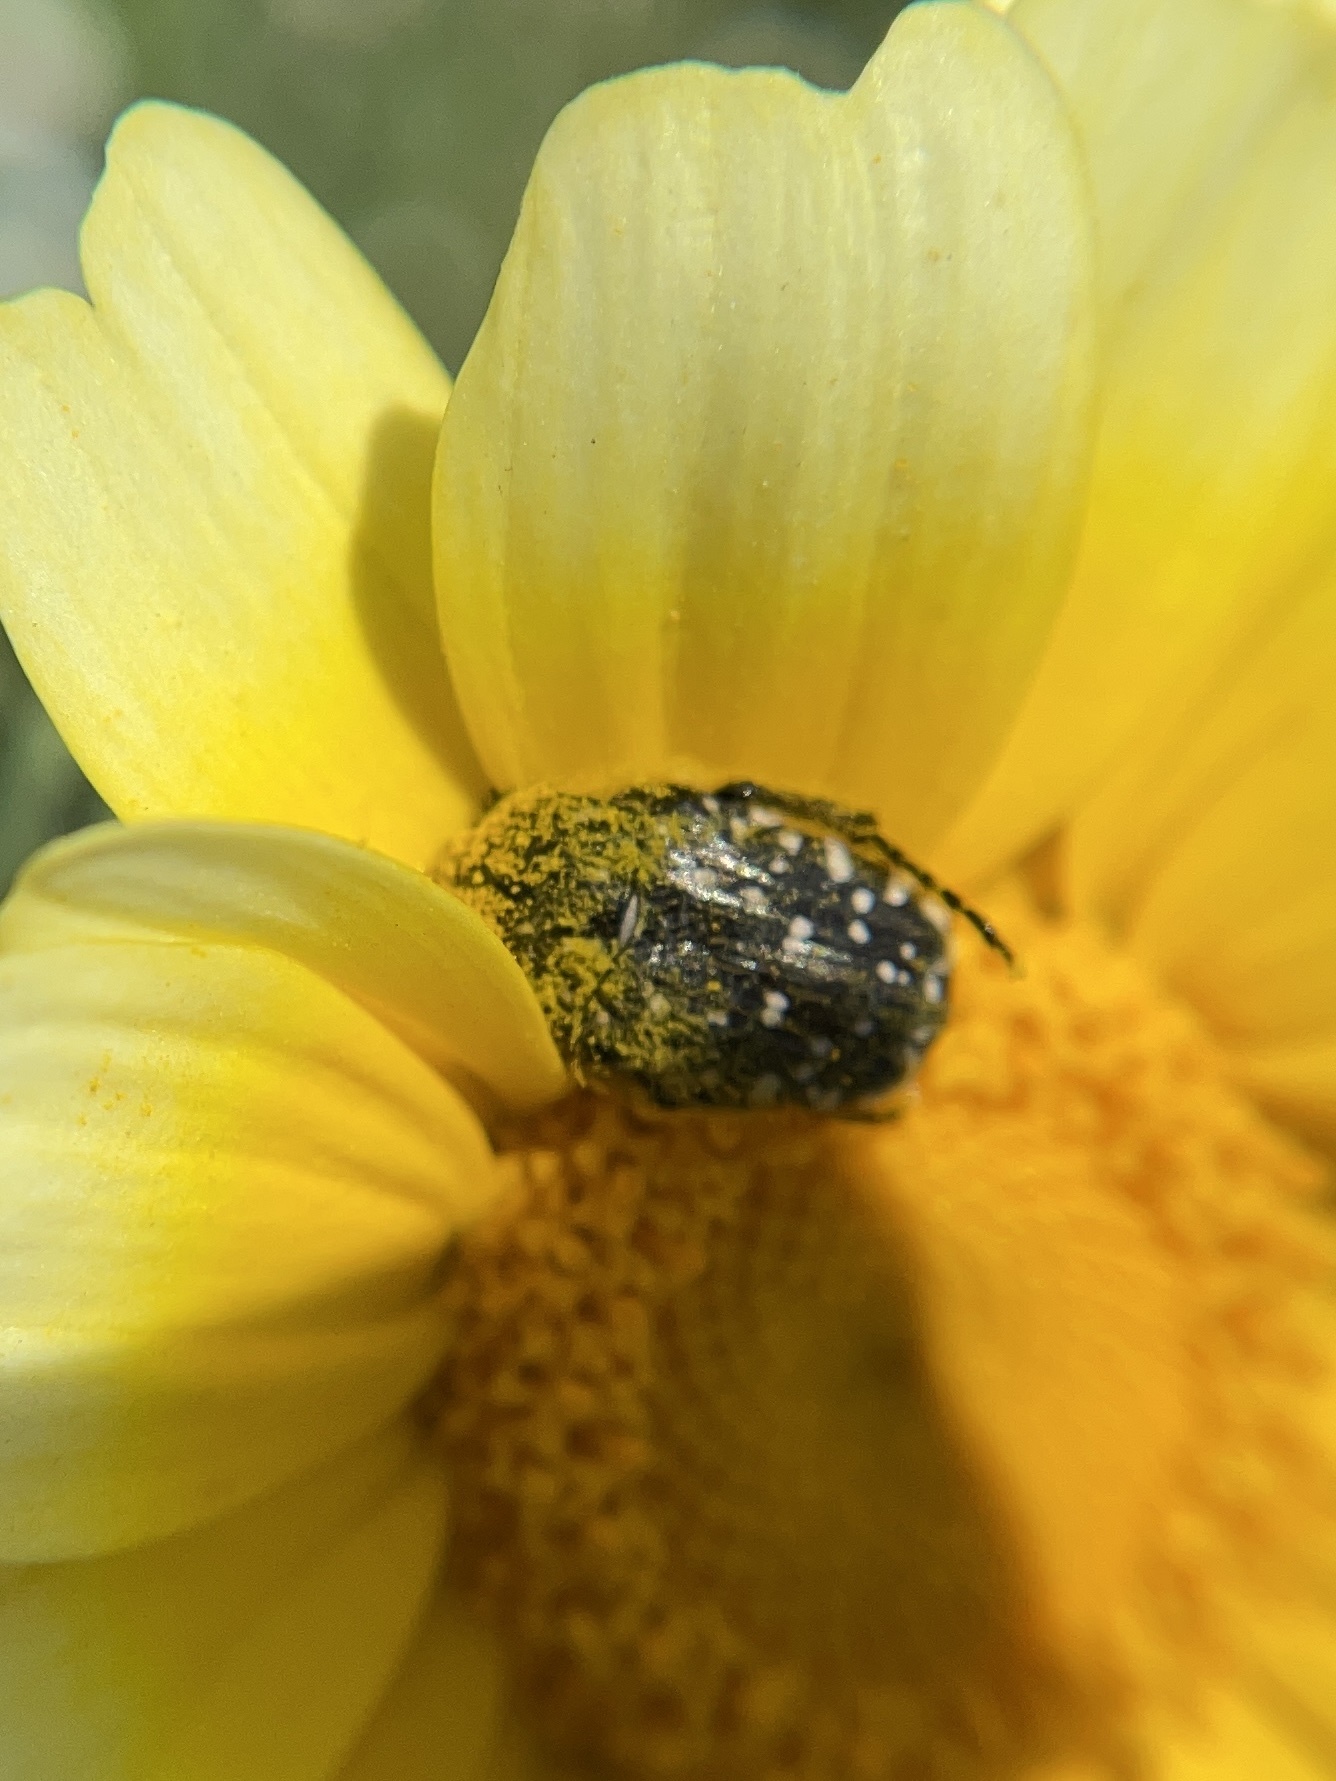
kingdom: Animalia
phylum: Arthropoda
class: Insecta
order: Coleoptera
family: Scarabaeidae
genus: Oxythyrea
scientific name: Oxythyrea funesta
